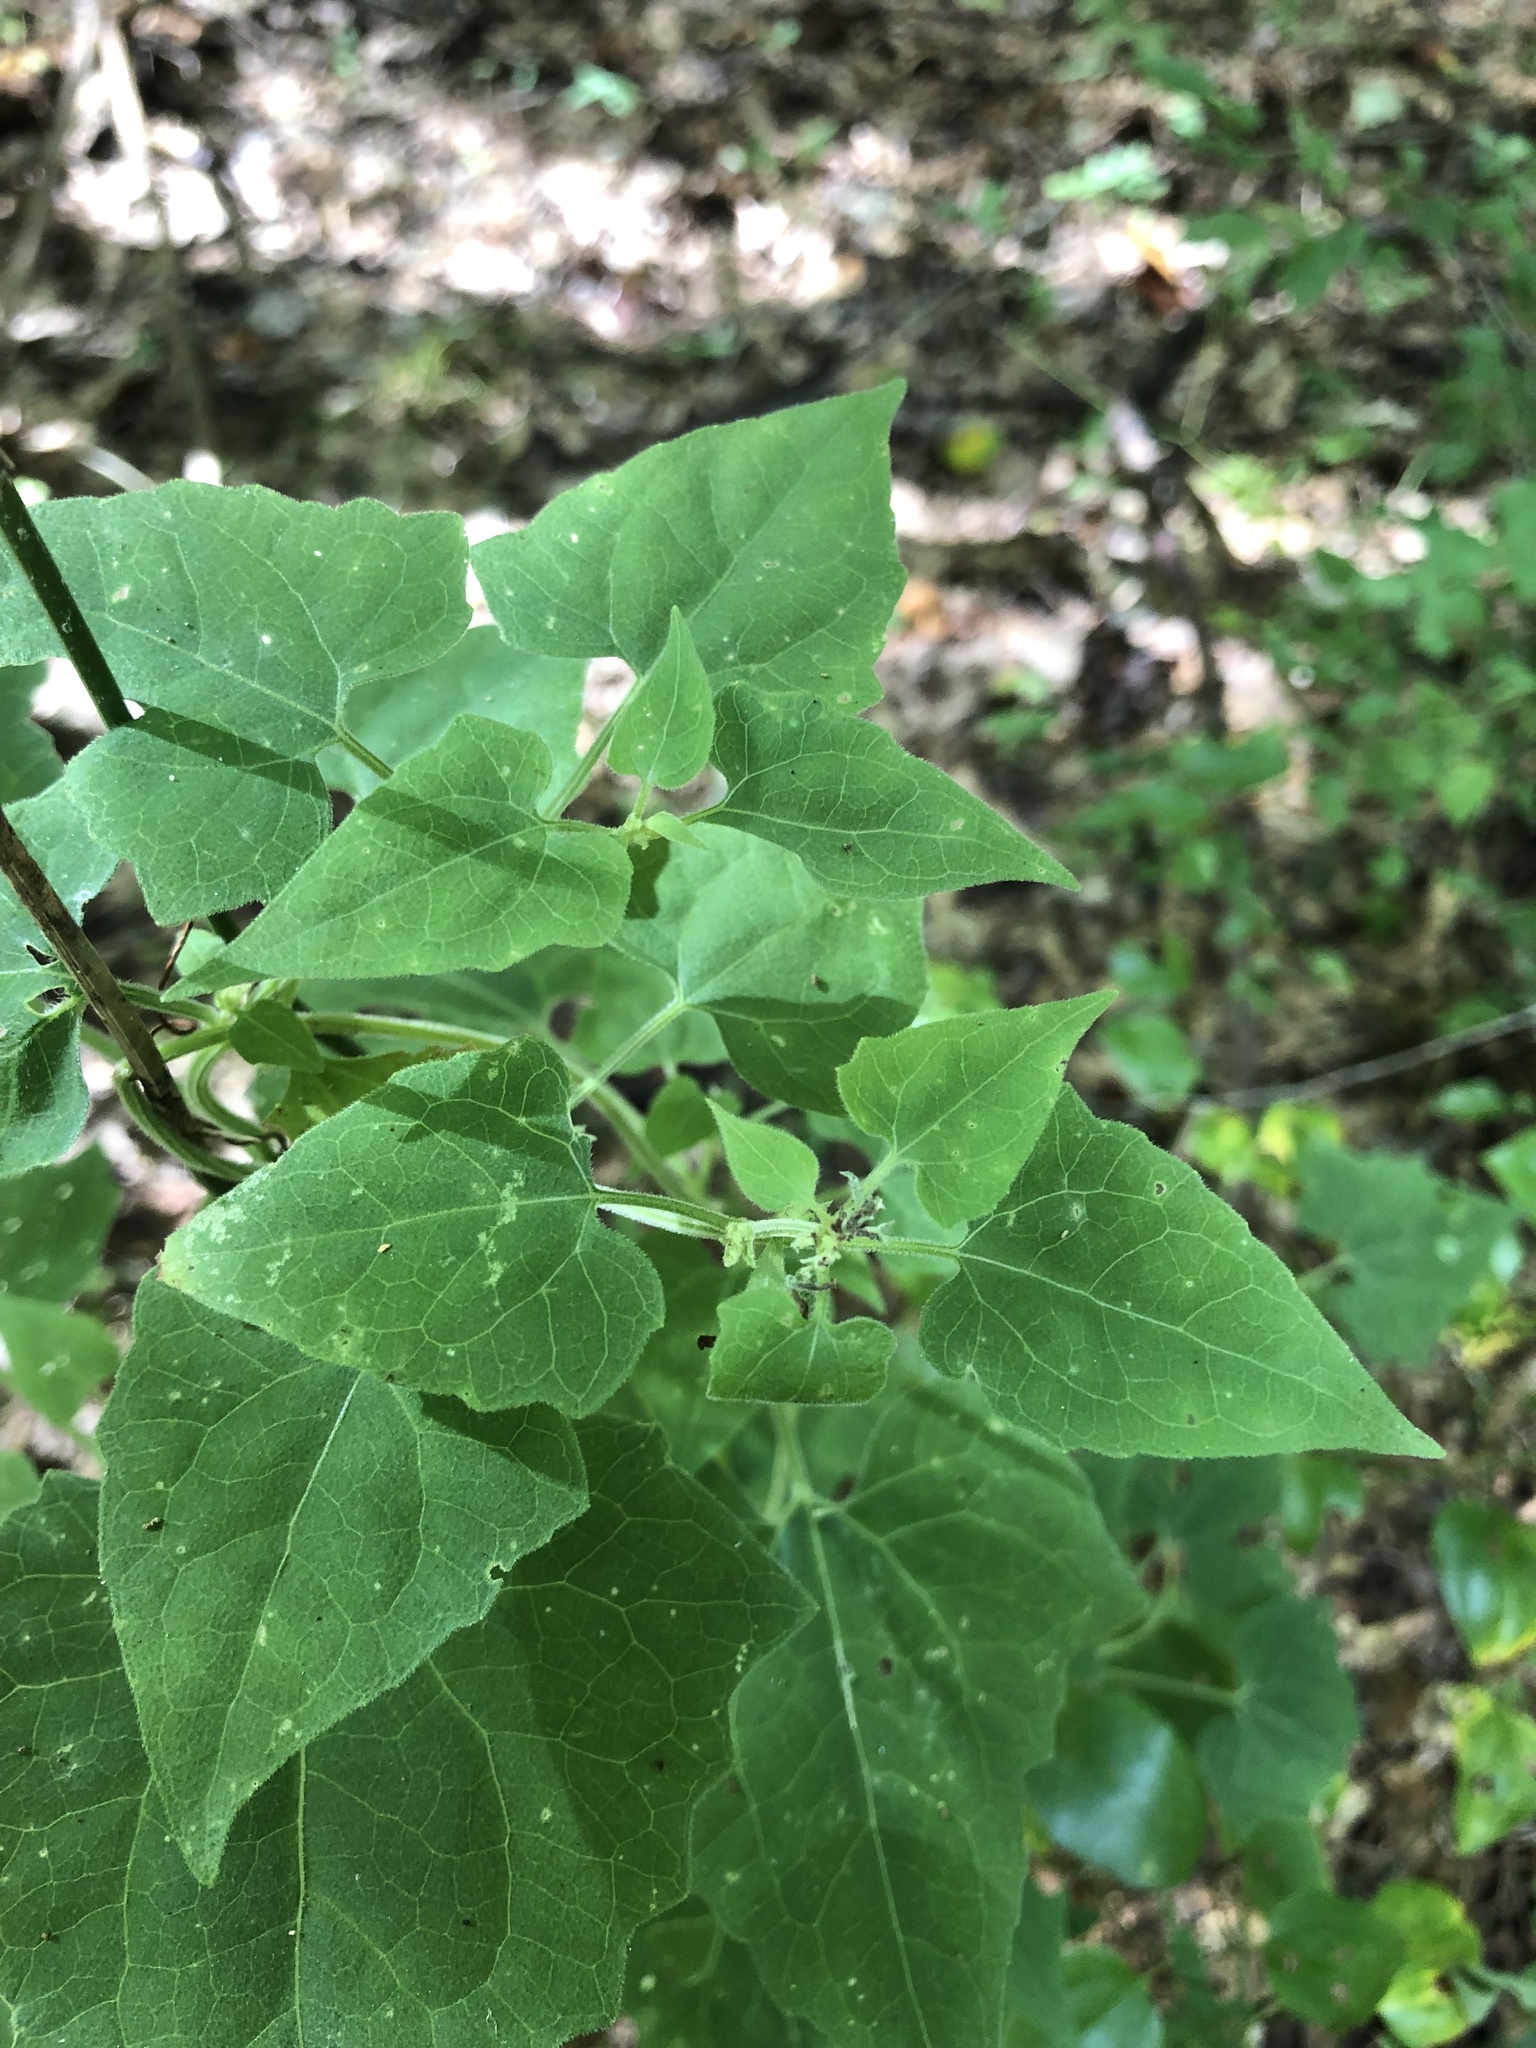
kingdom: Plantae
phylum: Tracheophyta
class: Magnoliopsida
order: Asterales
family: Asteraceae
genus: Mikania
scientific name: Mikania cordifolia
